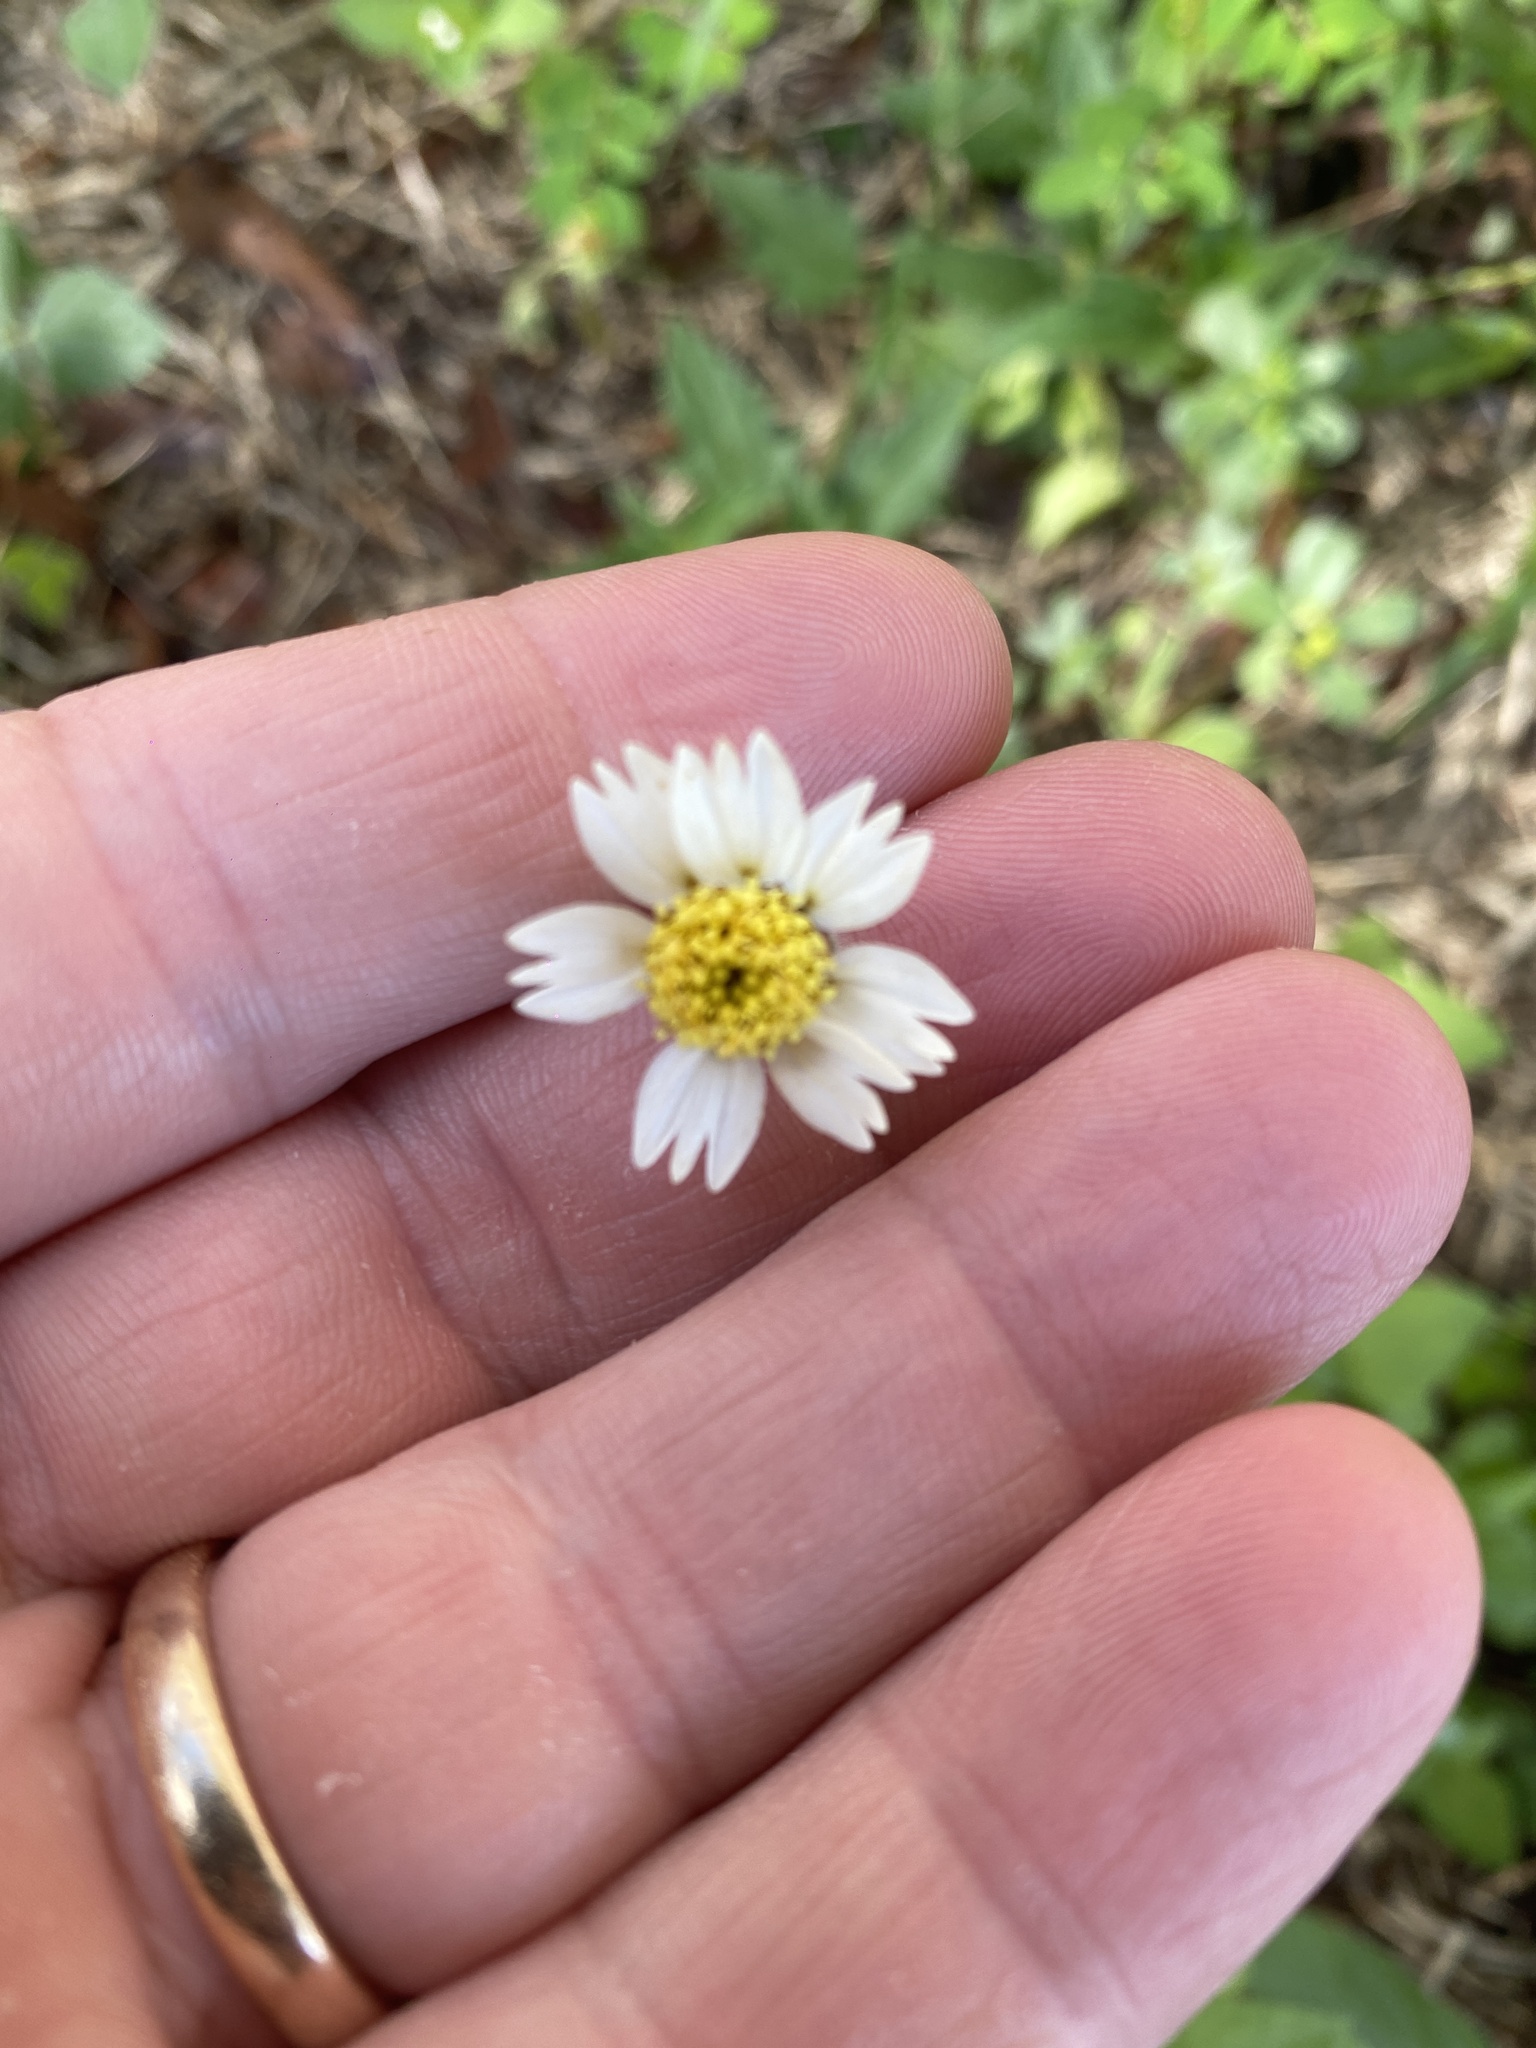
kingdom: Plantae
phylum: Tracheophyta
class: Magnoliopsida
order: Asterales
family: Asteraceae
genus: Tridax
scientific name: Tridax procumbens
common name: Coatbuttons
